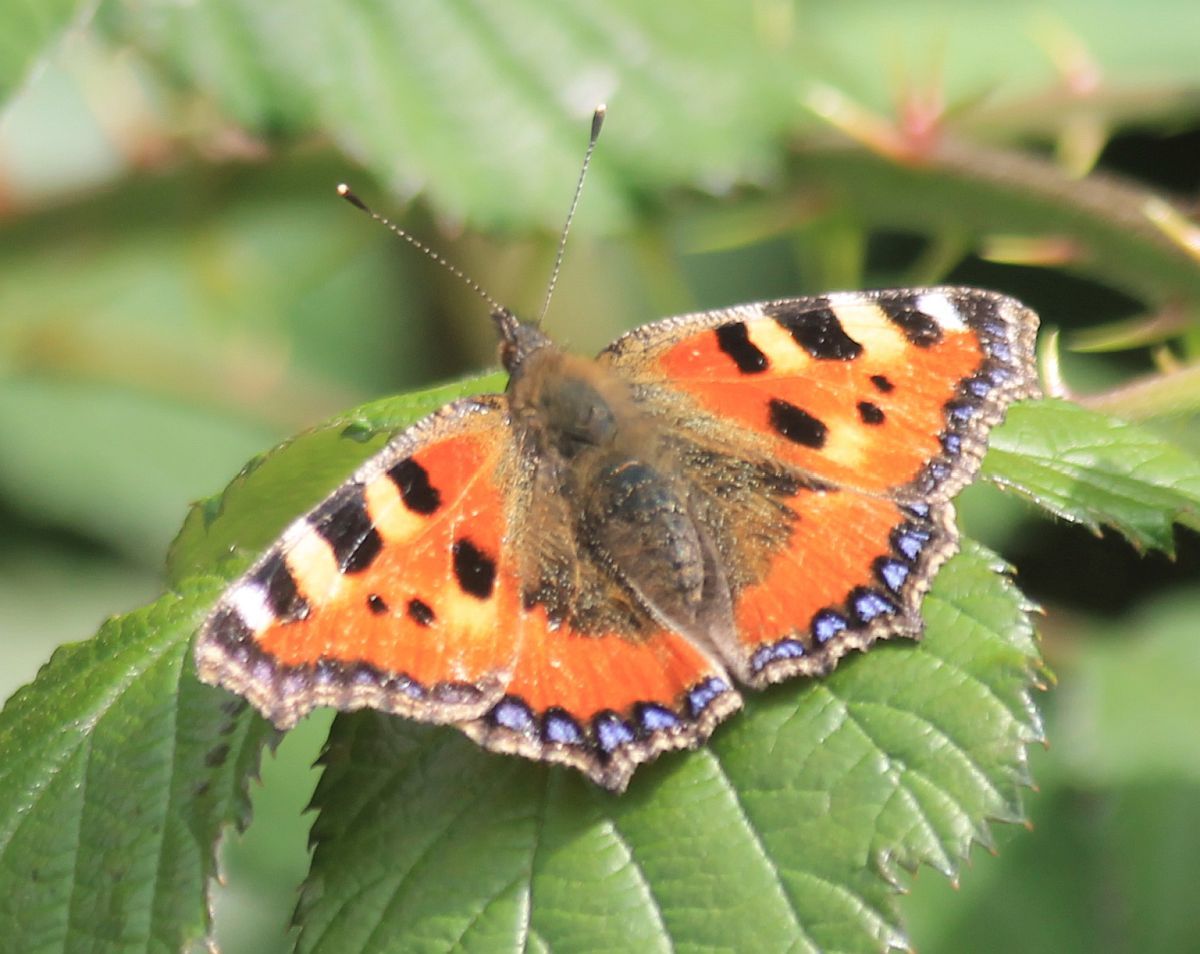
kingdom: Animalia
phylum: Arthropoda
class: Insecta
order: Lepidoptera
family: Nymphalidae
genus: Aglais
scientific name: Aglais urticae
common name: Small tortoiseshell
